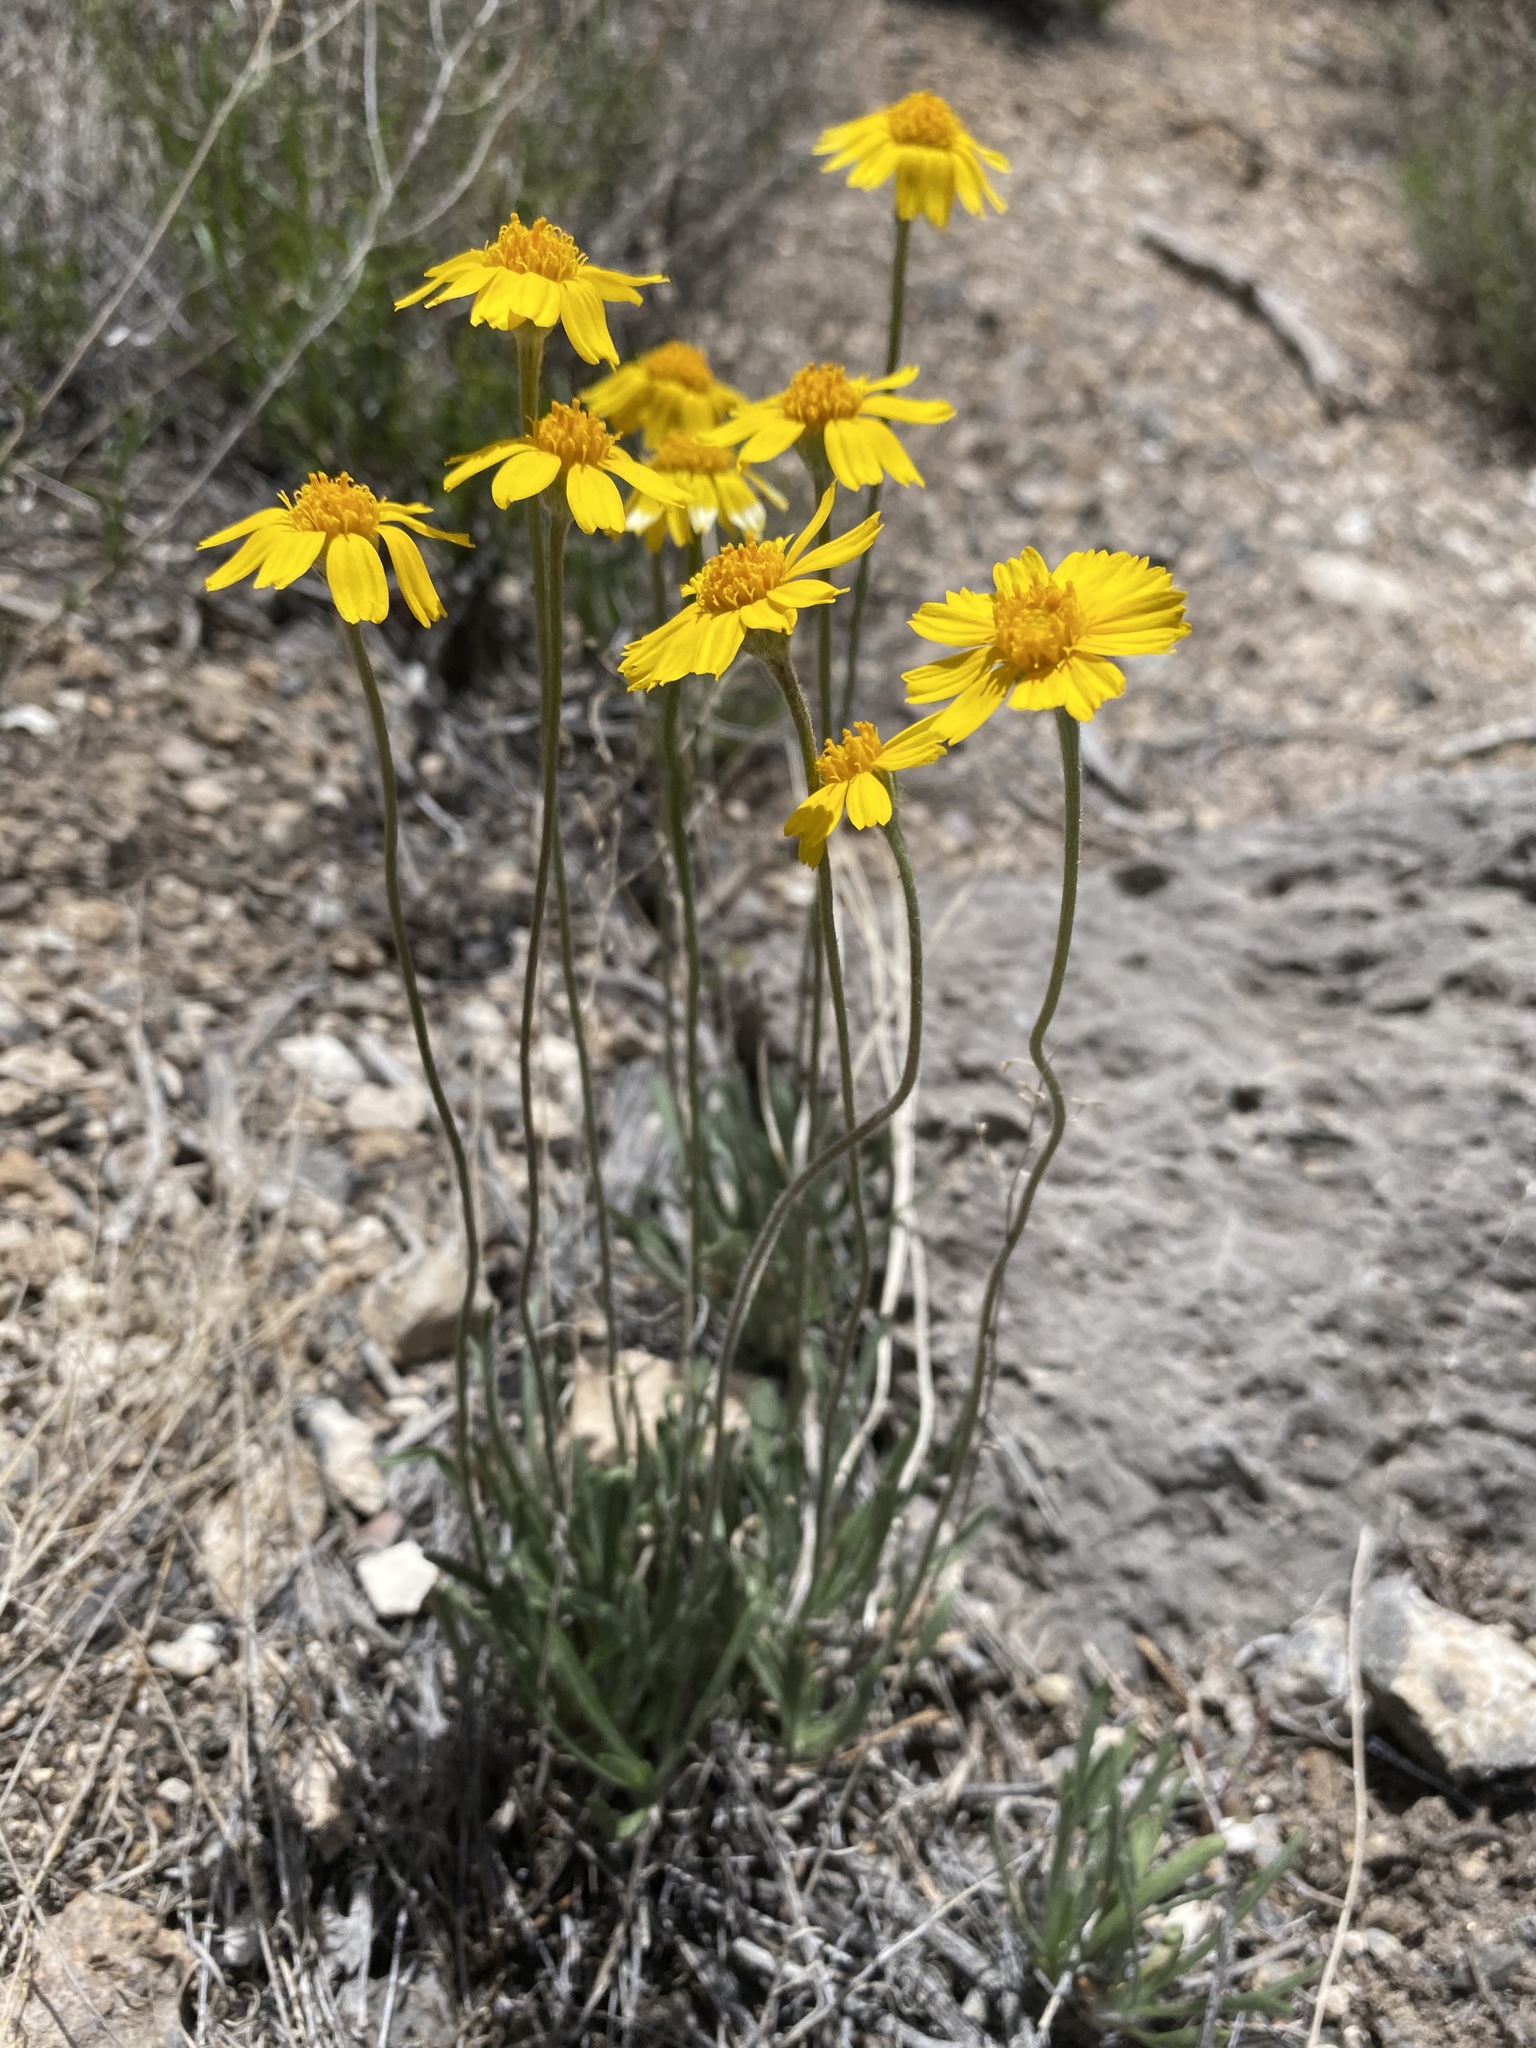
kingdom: Plantae
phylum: Tracheophyta
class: Magnoliopsida
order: Asterales
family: Asteraceae
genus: Tetraneuris
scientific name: Tetraneuris acaulis
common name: Butte marigold
